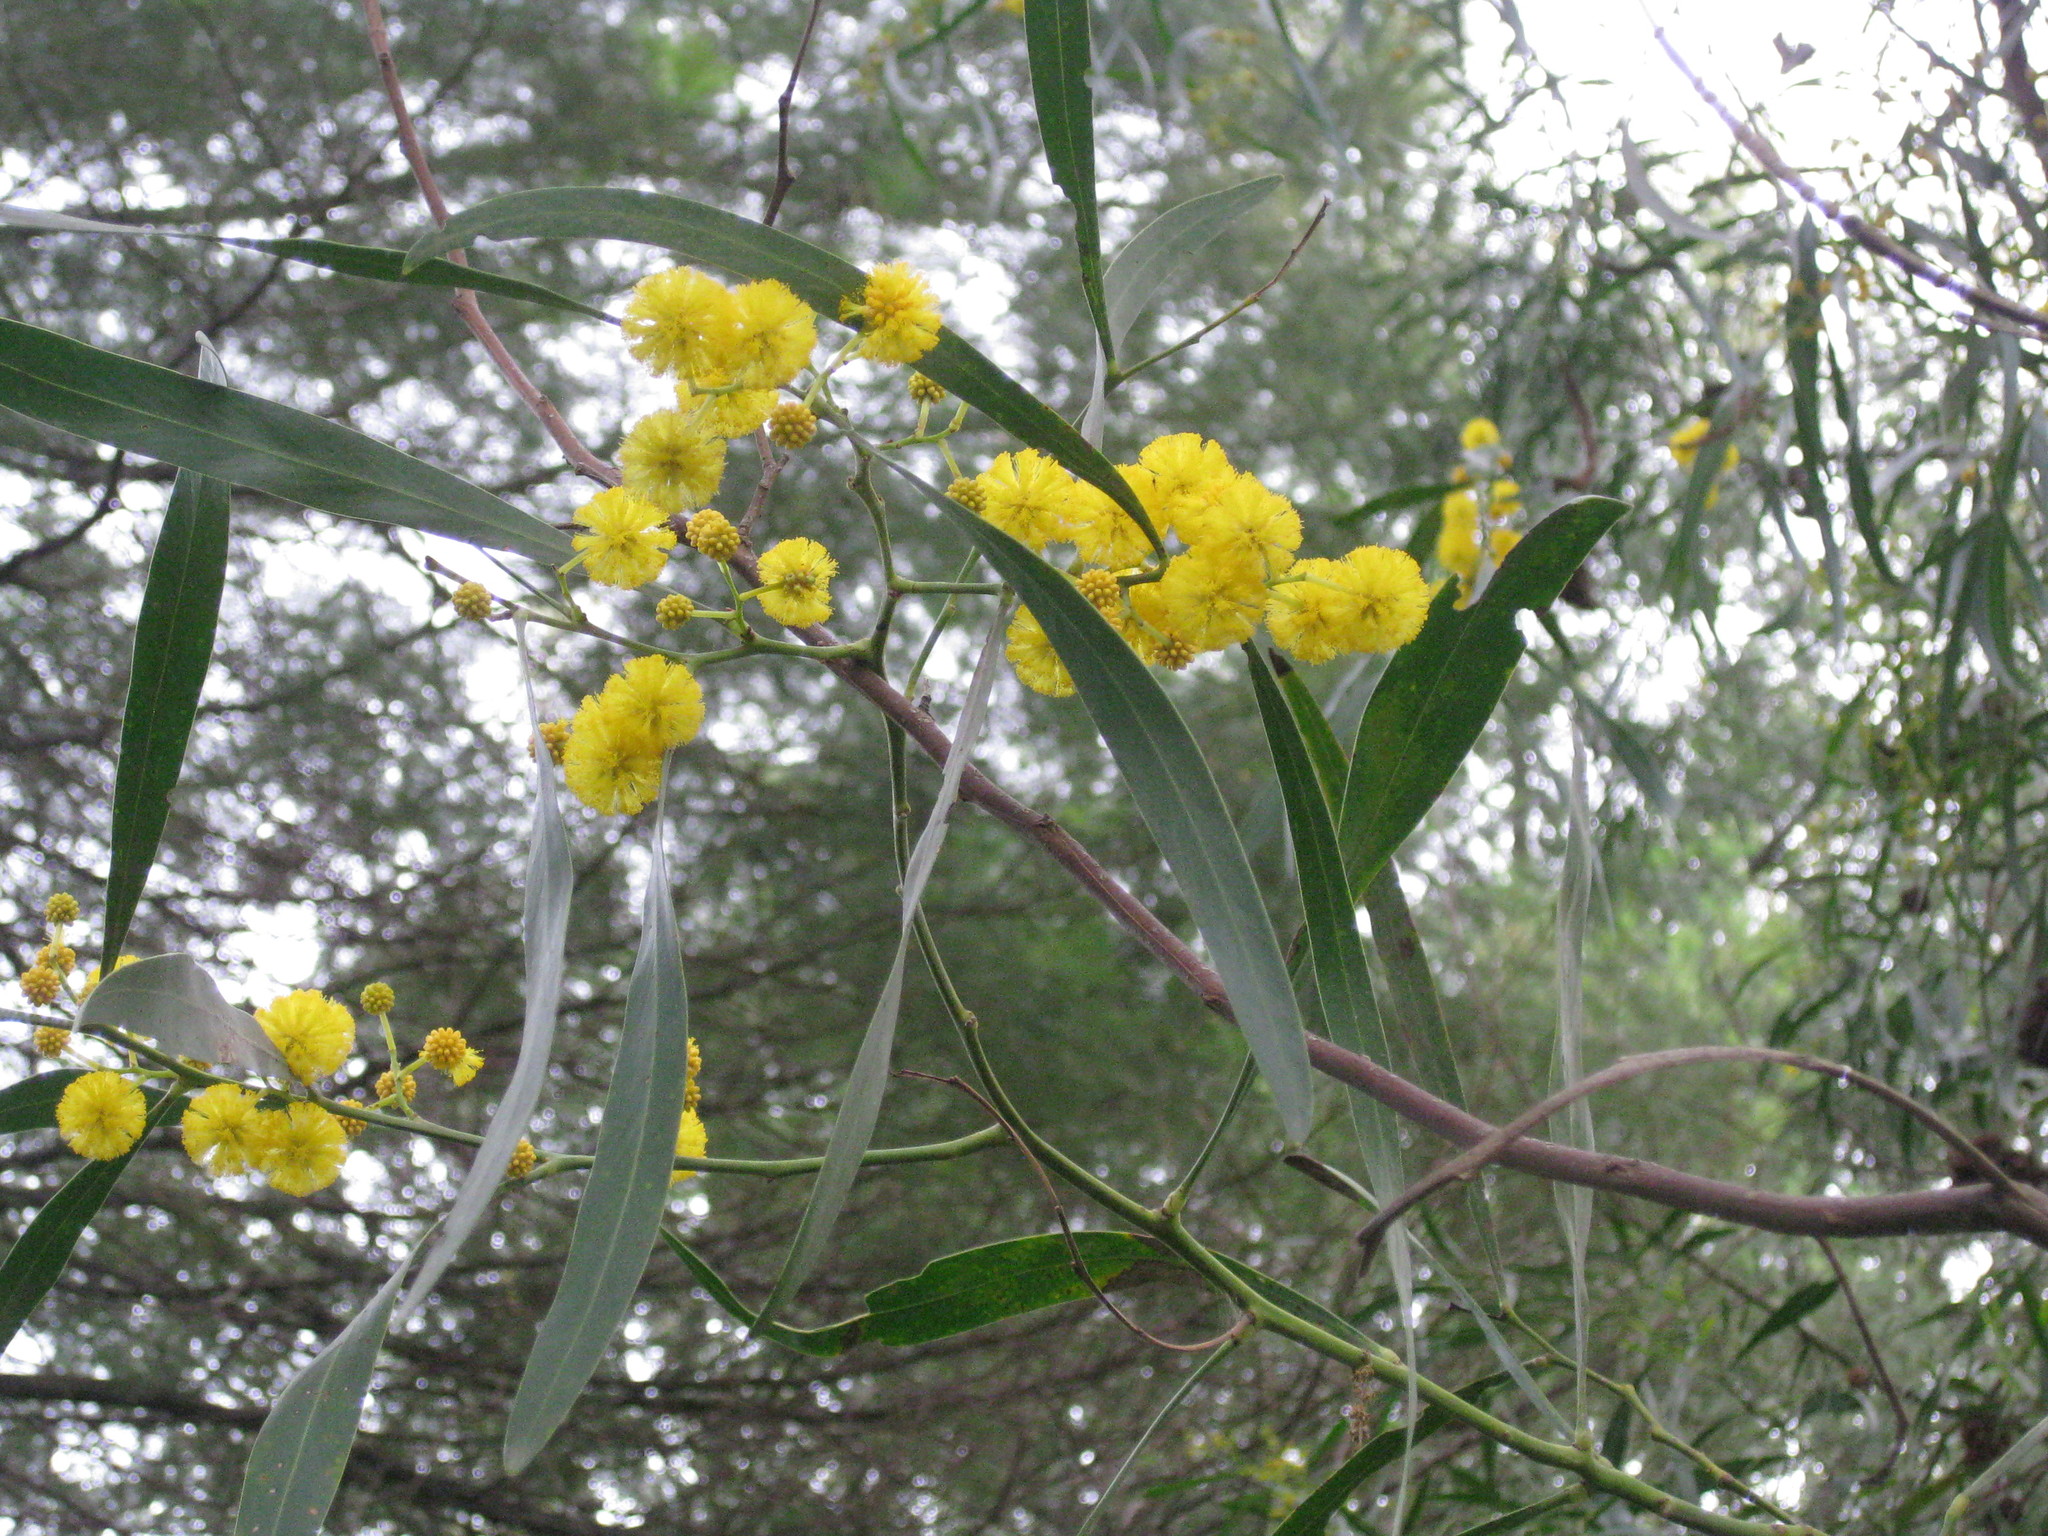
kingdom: Plantae
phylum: Tracheophyta
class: Magnoliopsida
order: Fabales
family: Fabaceae
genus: Acacia
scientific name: Acacia saligna
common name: Orange wattle
